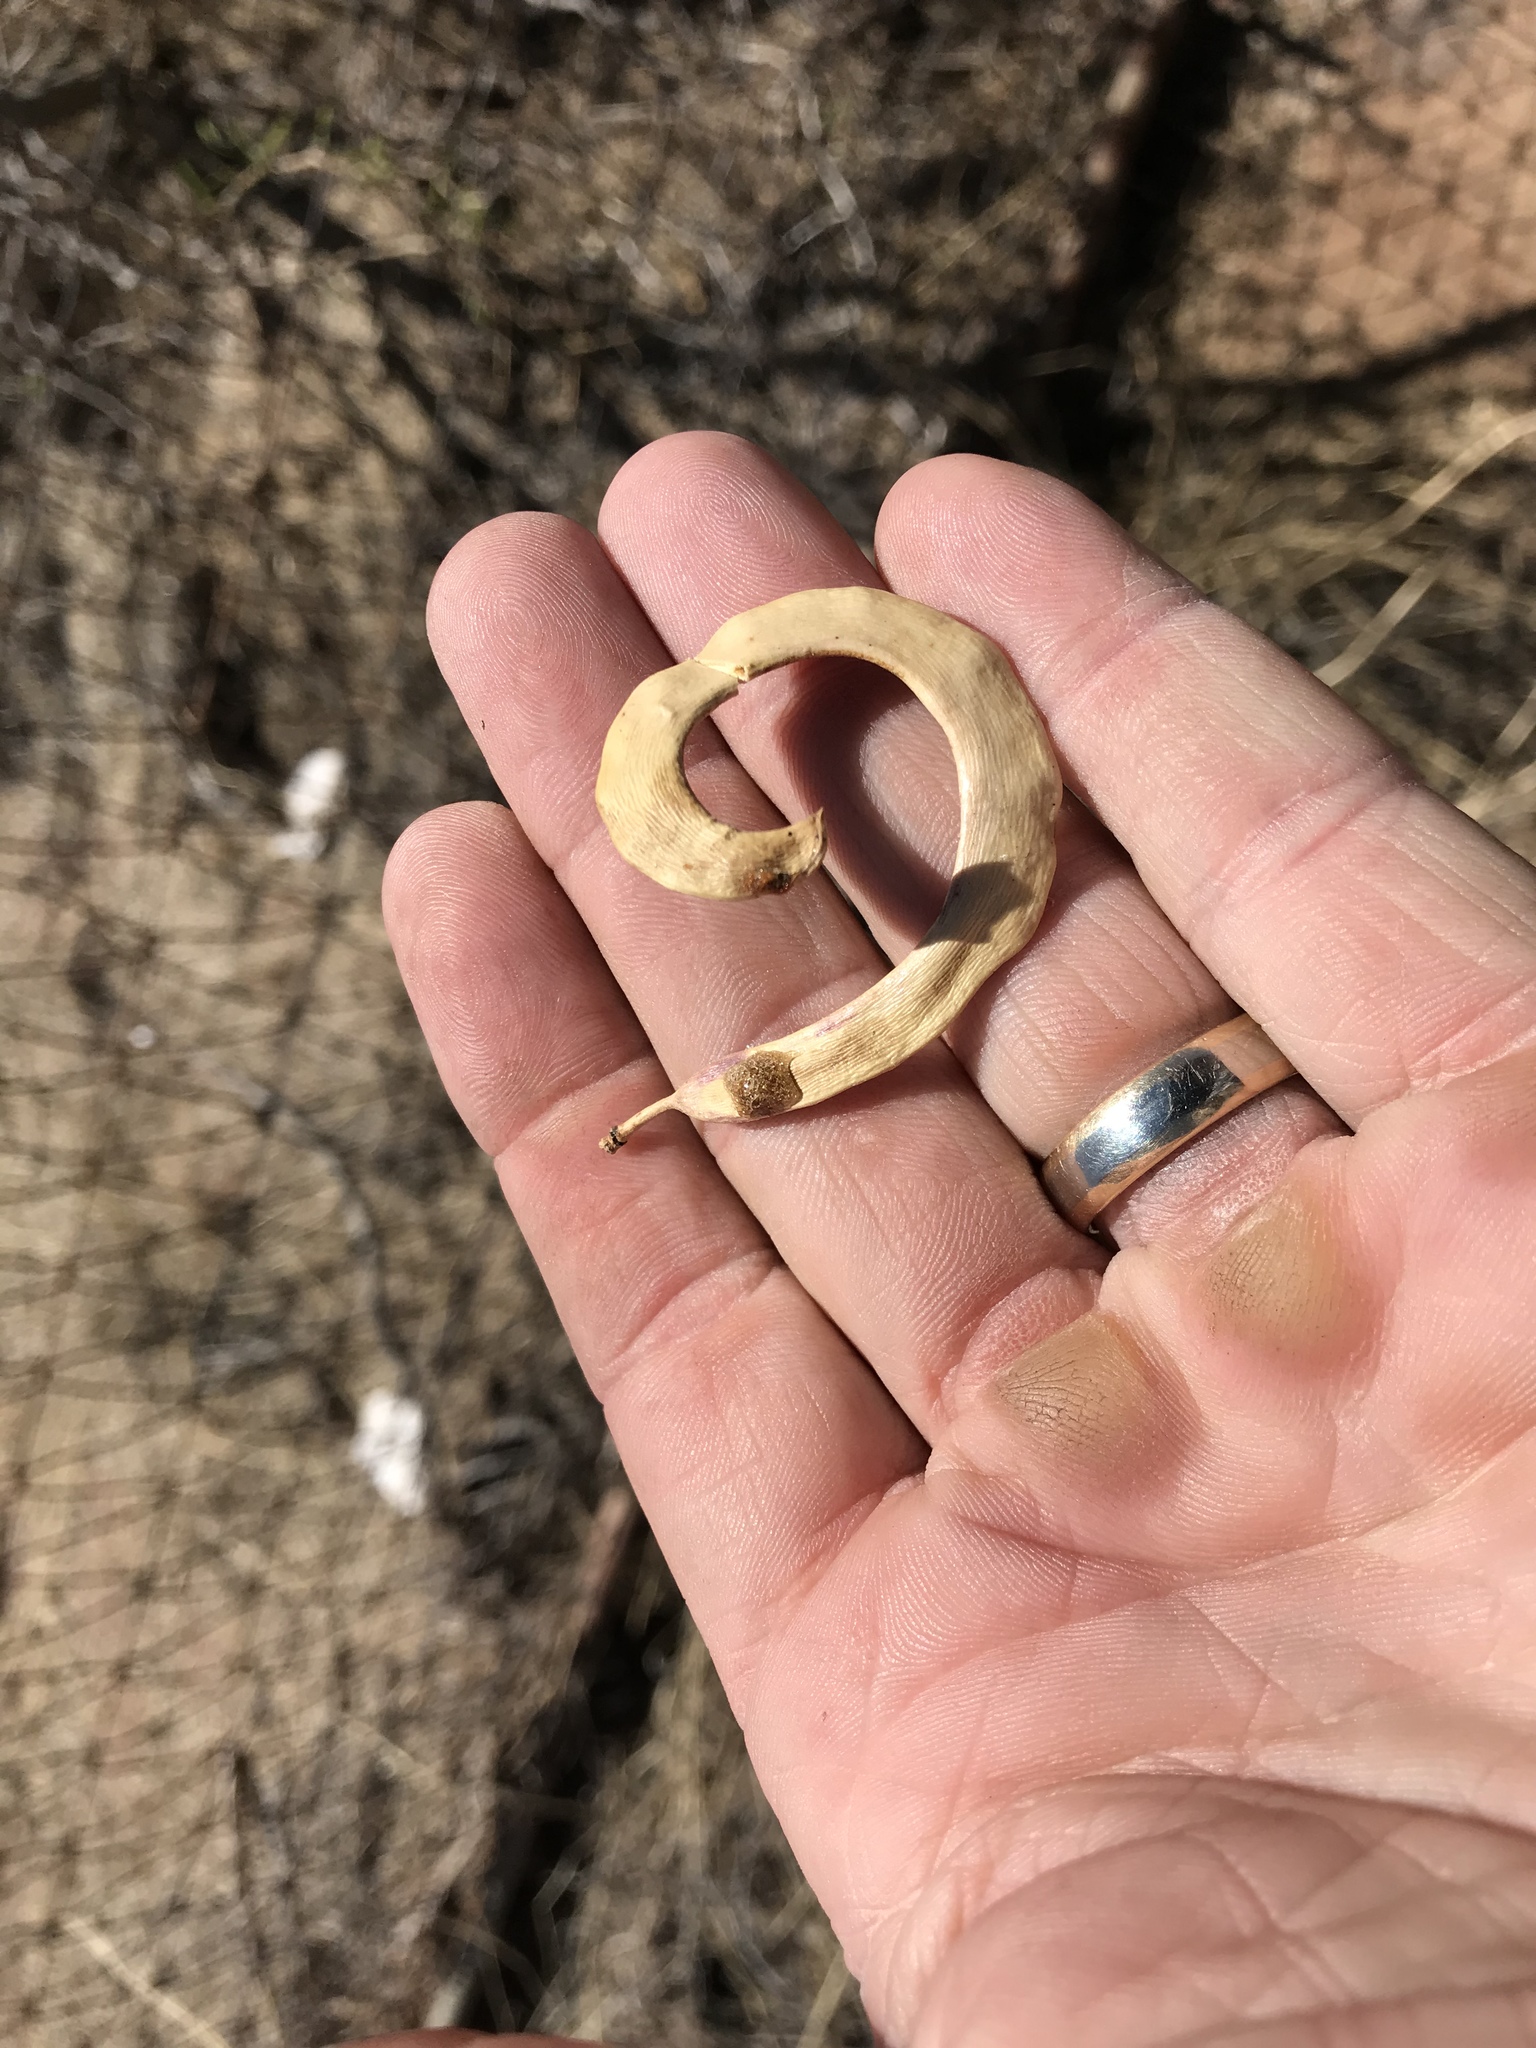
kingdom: Plantae
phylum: Tracheophyta
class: Magnoliopsida
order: Fabales
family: Fabaceae
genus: Prosopis
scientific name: Prosopis glandulosa
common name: Honey mesquite
